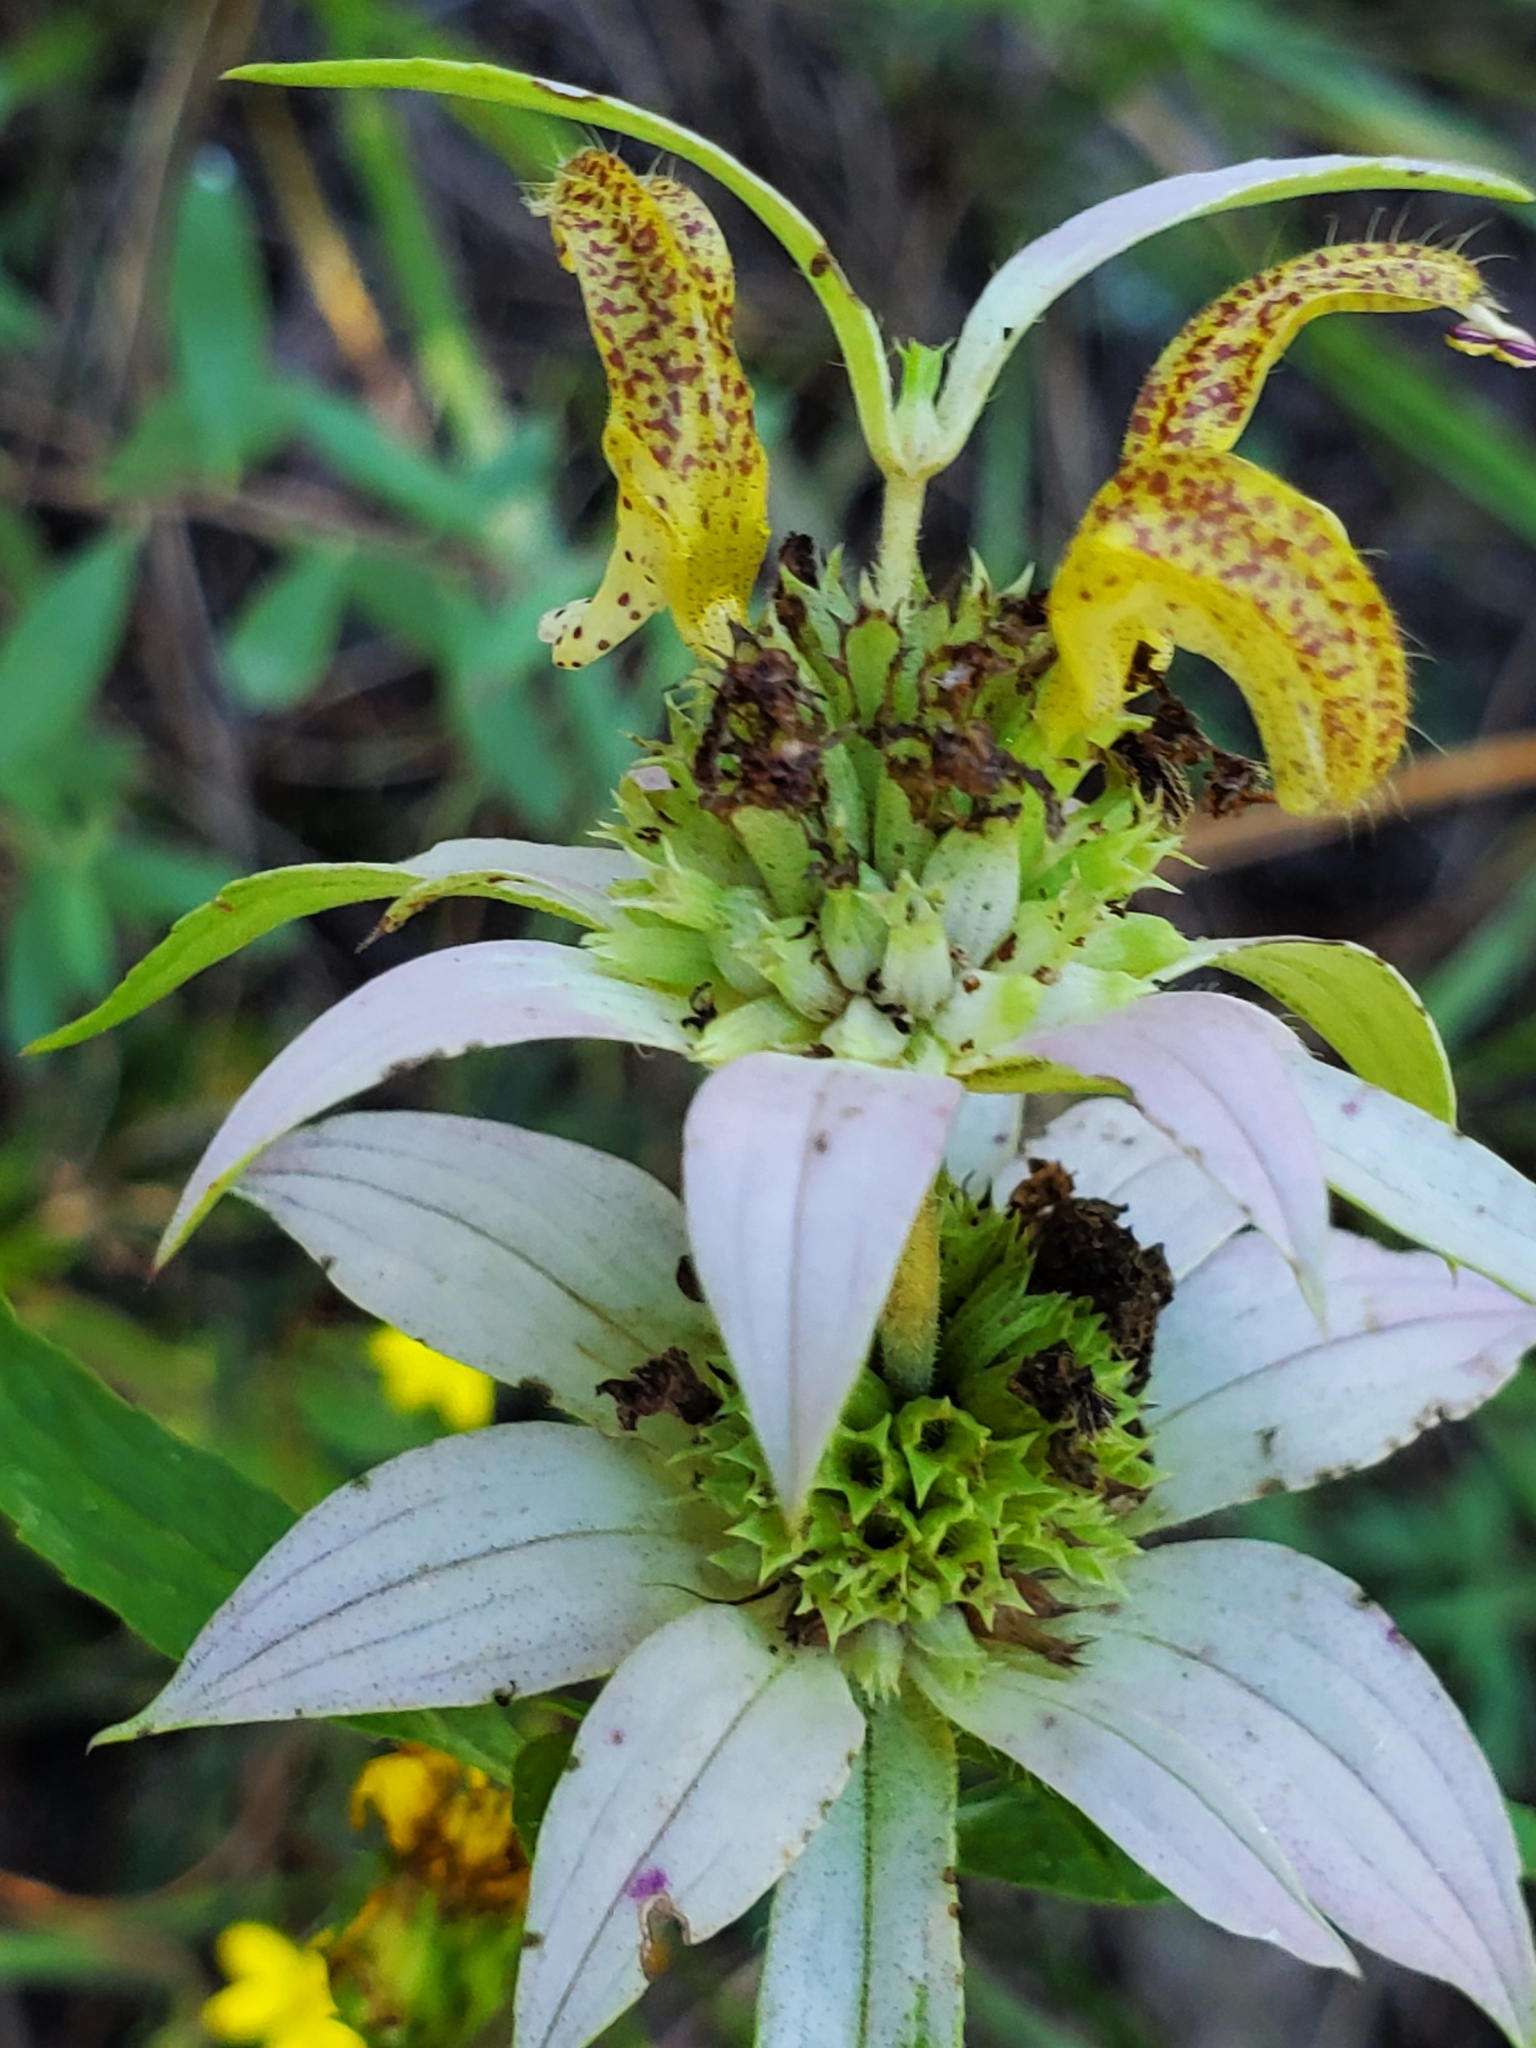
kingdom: Plantae
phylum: Tracheophyta
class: Magnoliopsida
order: Lamiales
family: Lamiaceae
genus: Monarda
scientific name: Monarda punctata
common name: Dotted monarda
